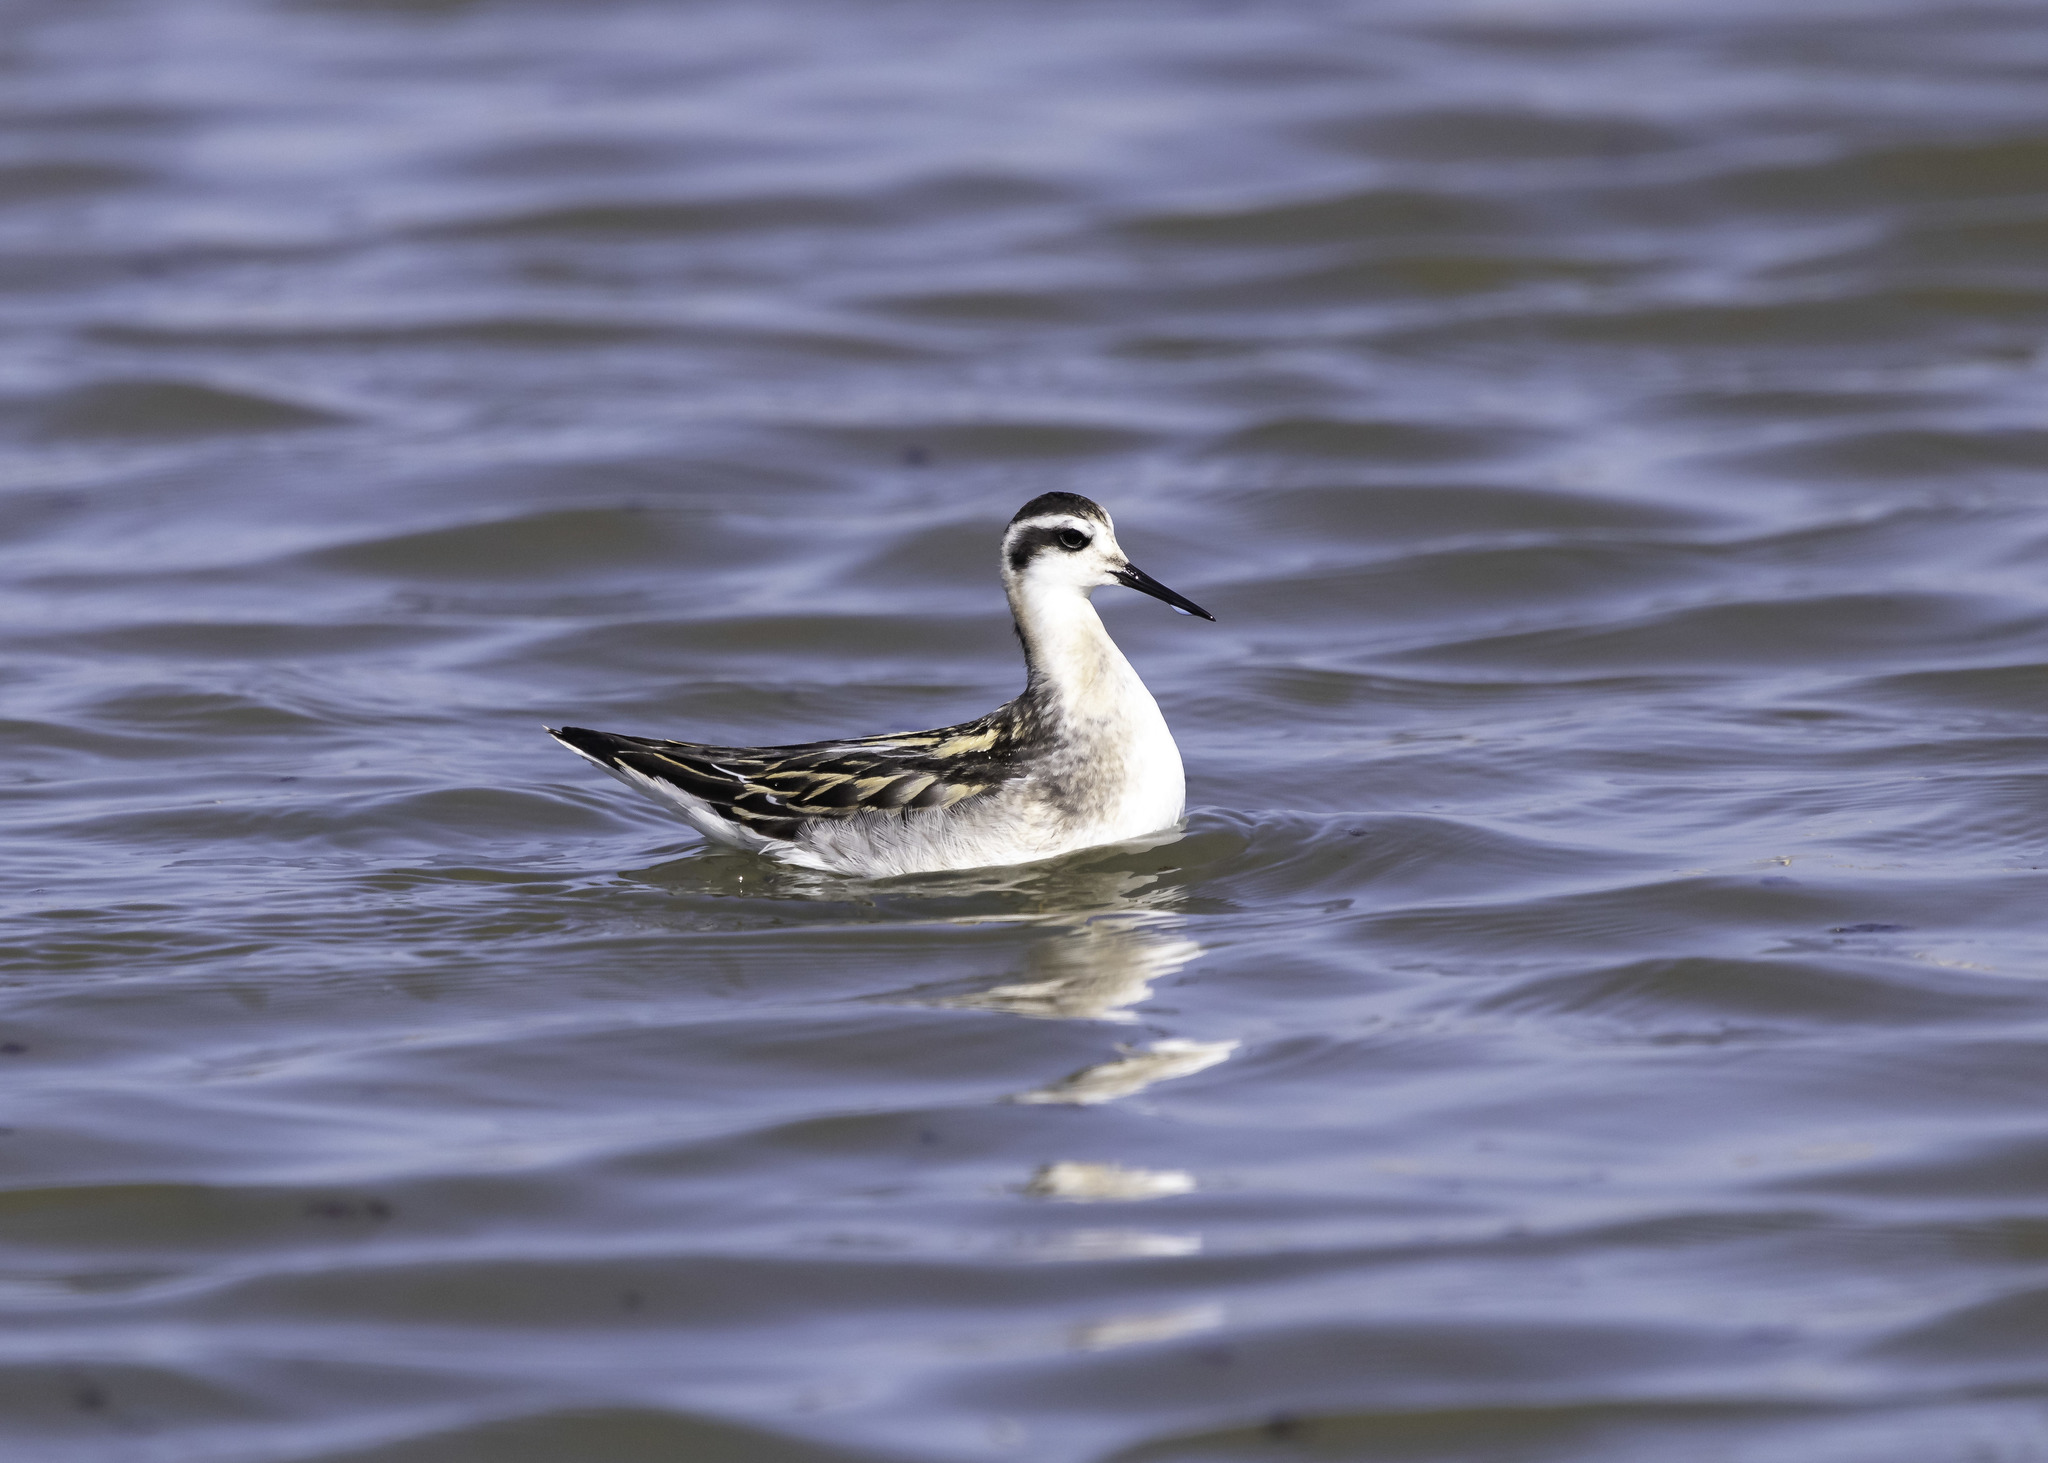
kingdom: Animalia
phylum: Chordata
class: Aves
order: Charadriiformes
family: Scolopacidae
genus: Phalaropus
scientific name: Phalaropus lobatus
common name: Red-necked phalarope
